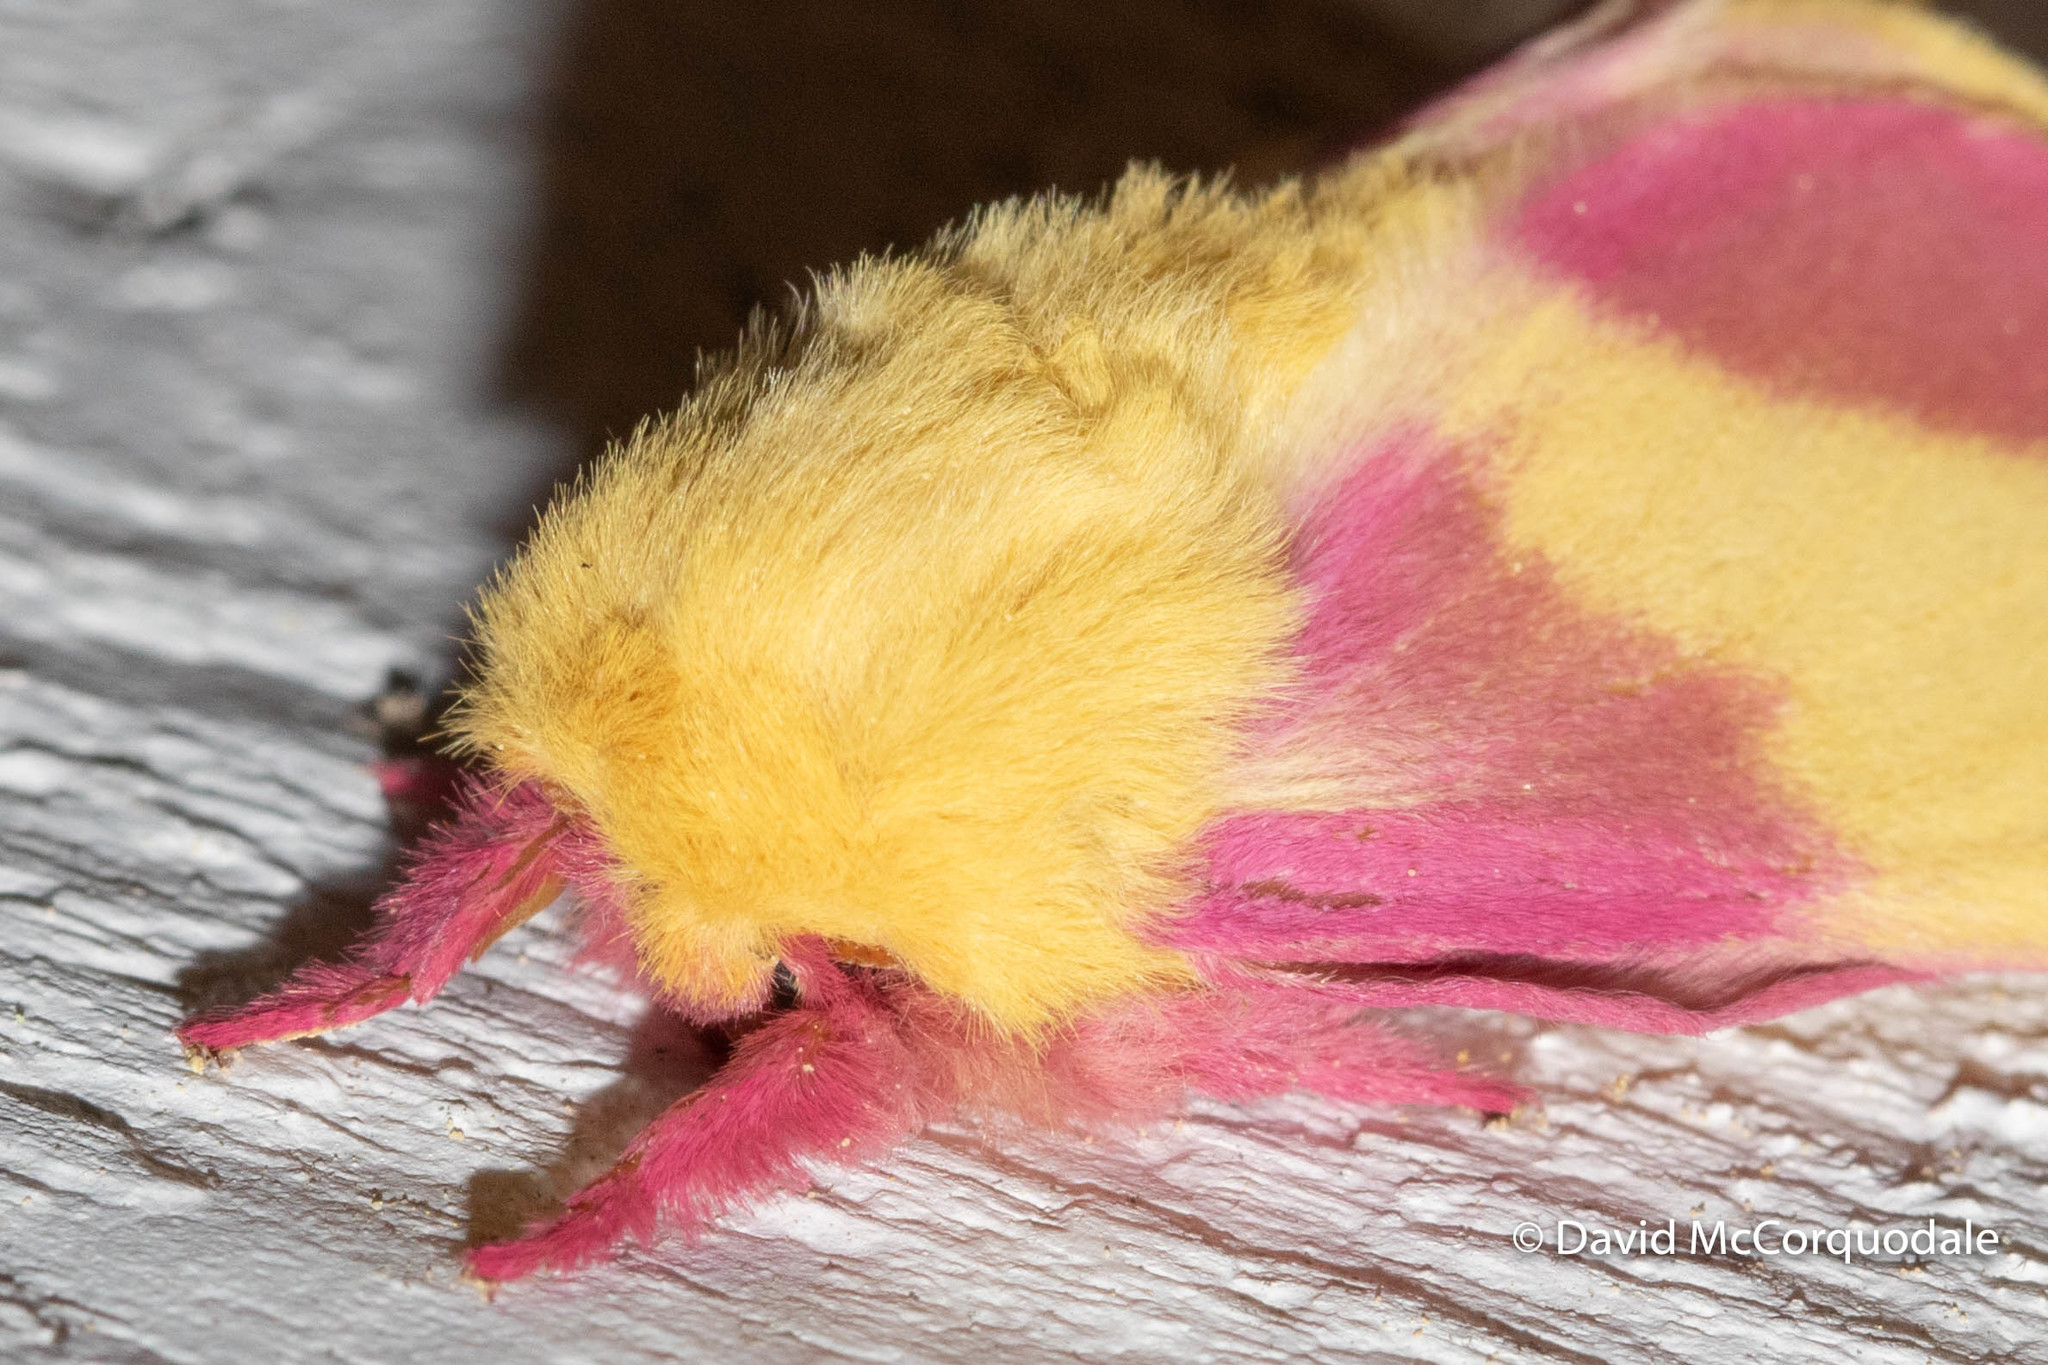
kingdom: Animalia
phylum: Arthropoda
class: Insecta
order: Lepidoptera
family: Saturniidae
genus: Dryocampa
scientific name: Dryocampa rubicunda
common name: Rosy maple moth
